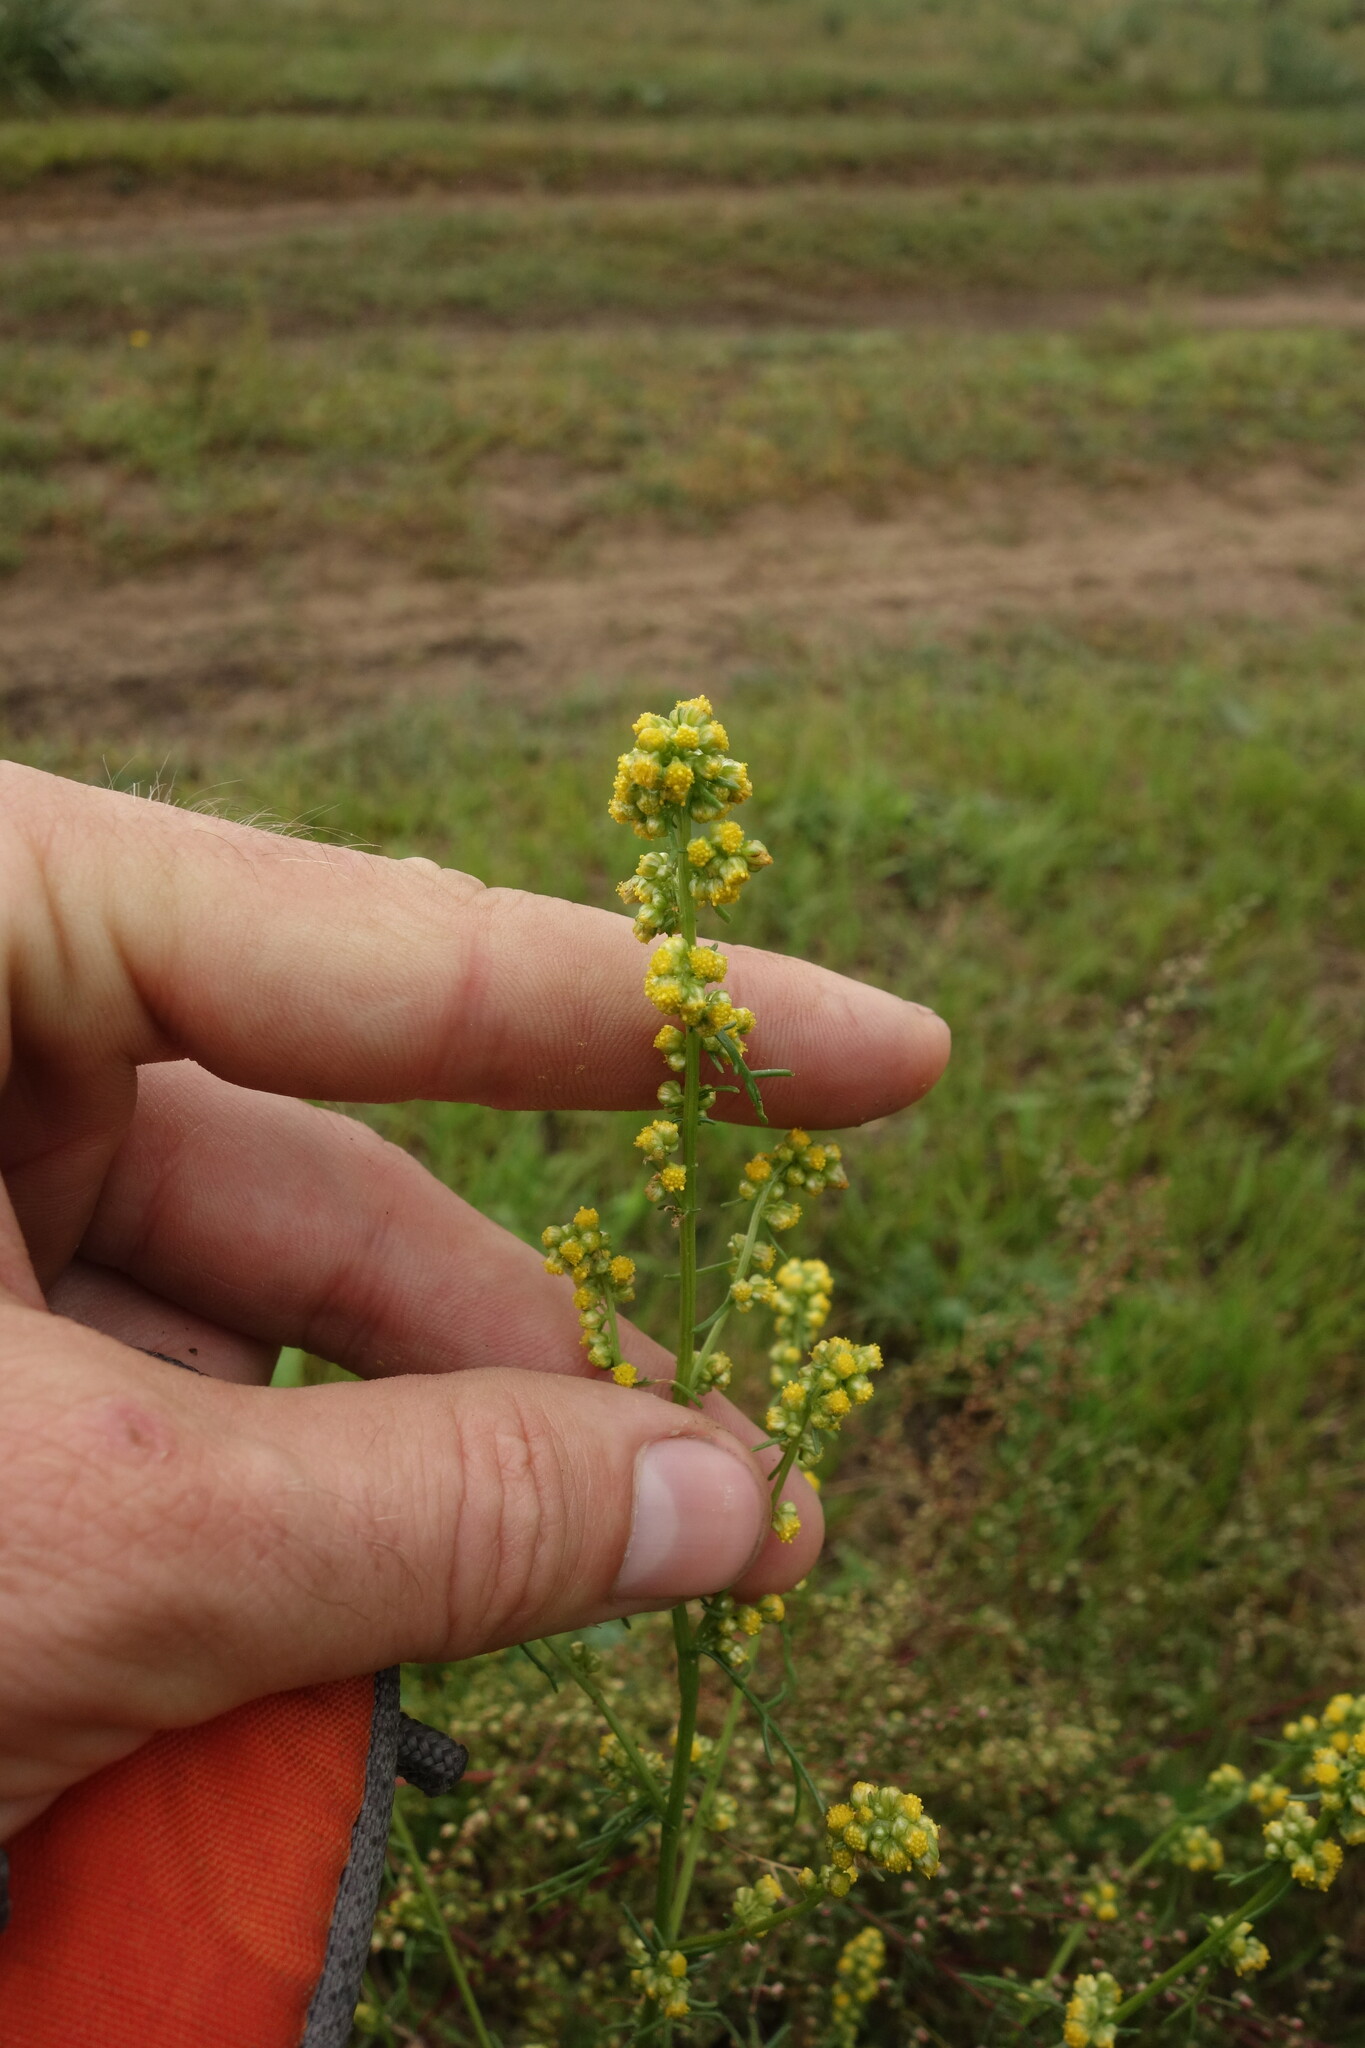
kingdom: Plantae
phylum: Tracheophyta
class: Magnoliopsida
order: Asterales
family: Asteraceae
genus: Artemisia
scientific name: Artemisia palustris
